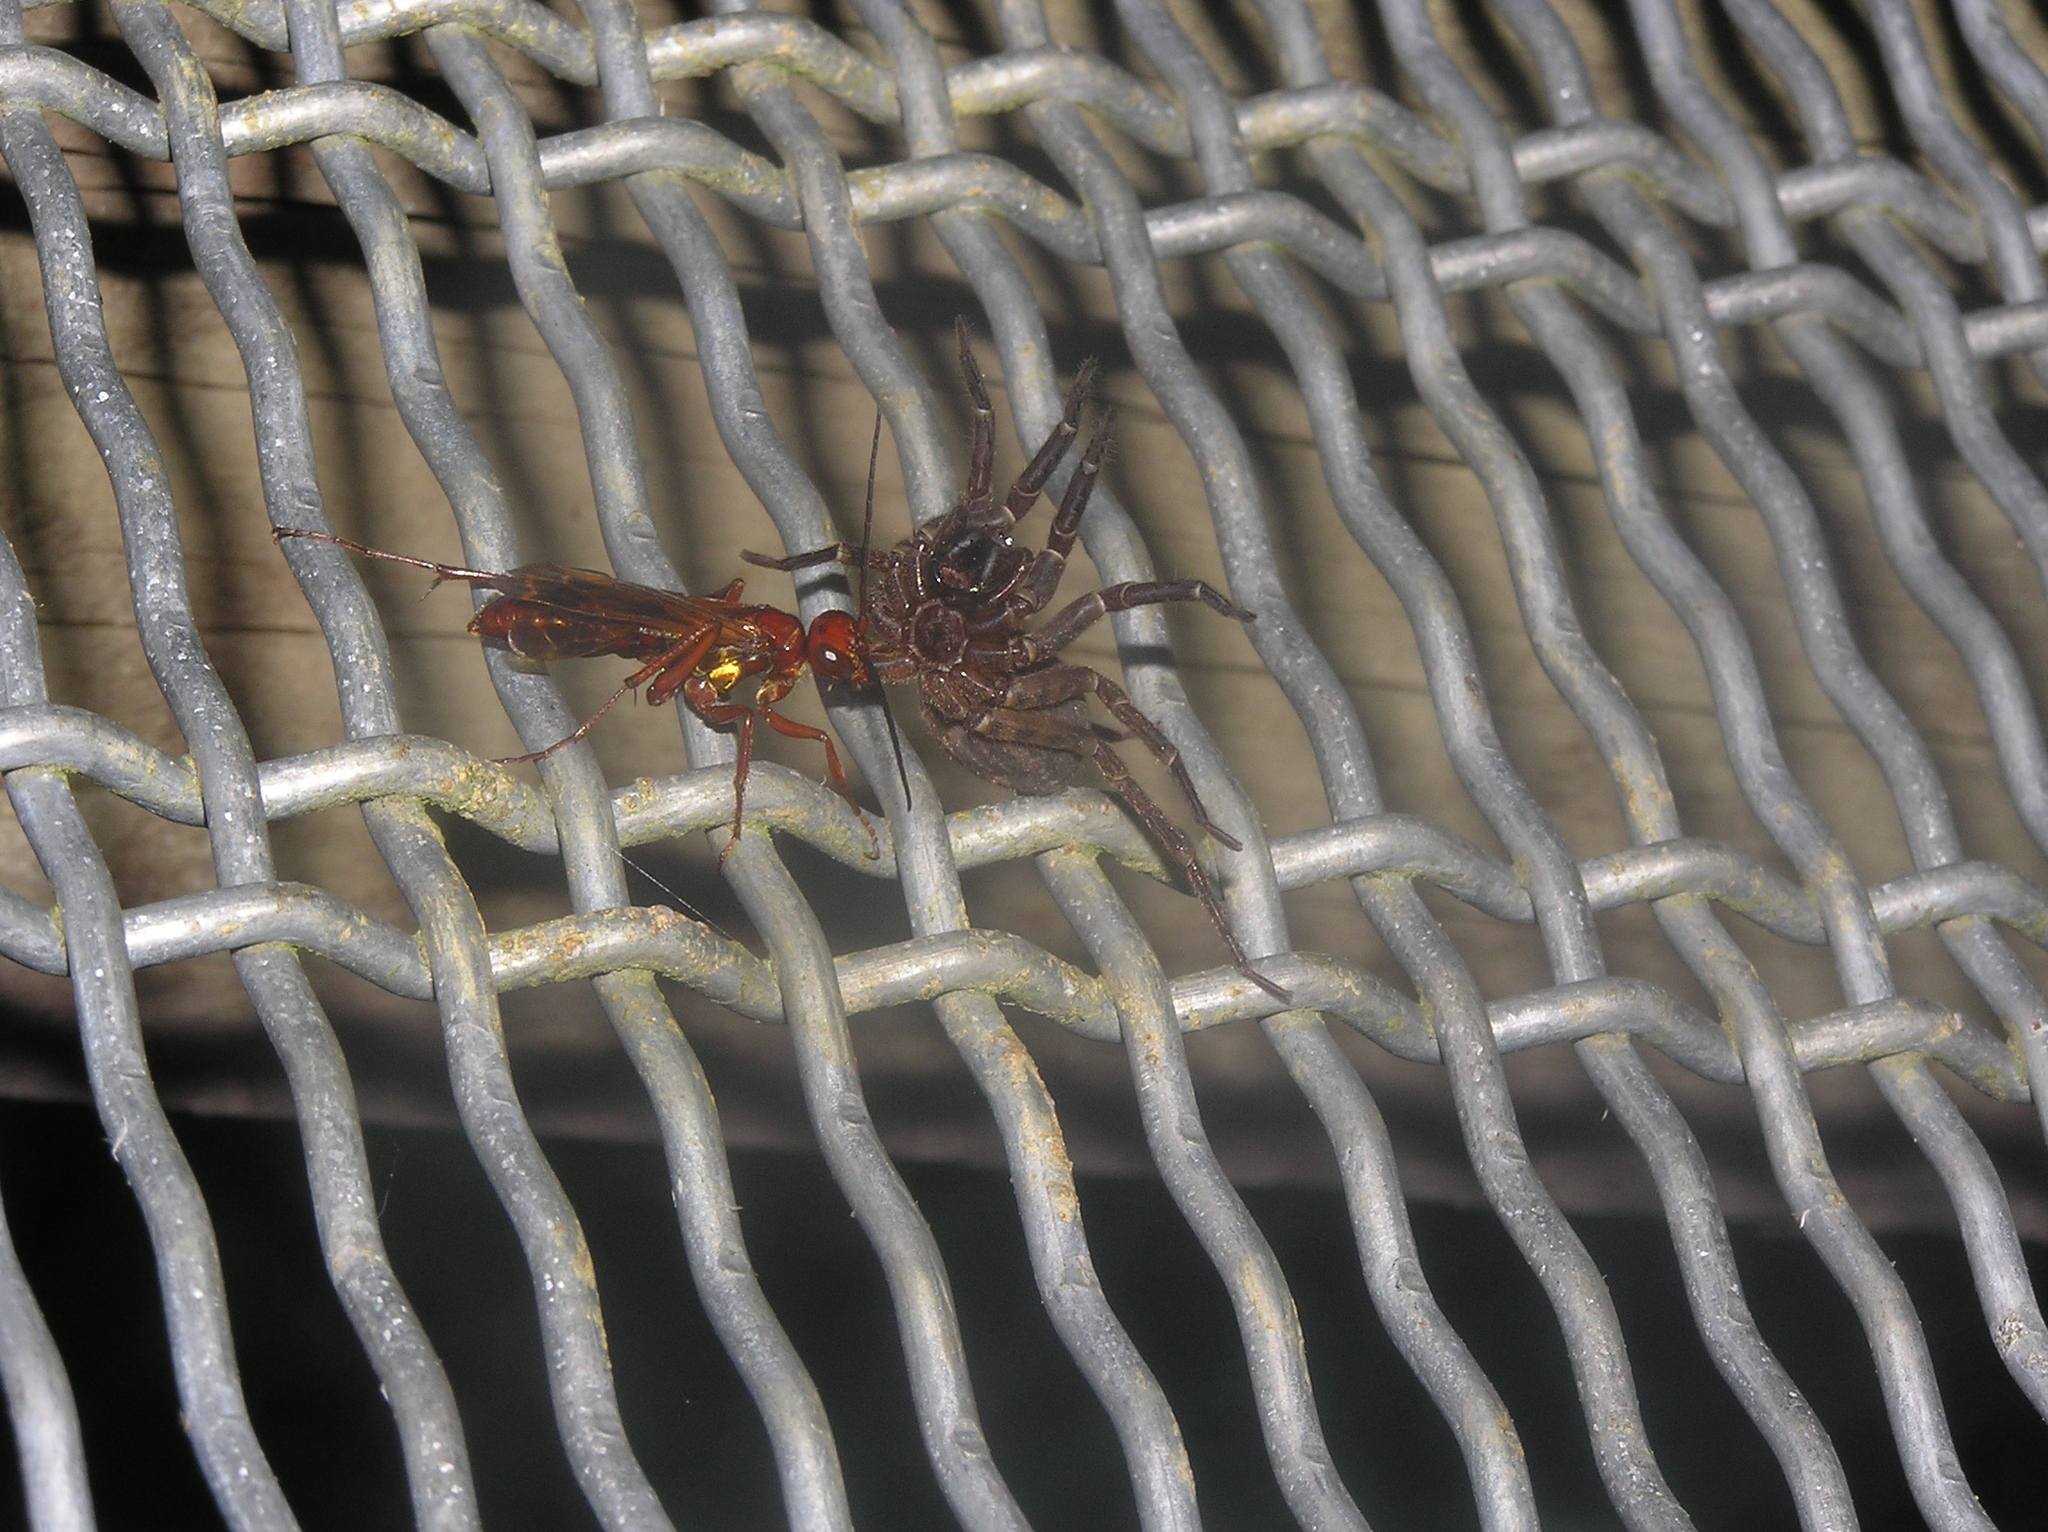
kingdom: Animalia
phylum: Arthropoda
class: Insecta
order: Hymenoptera
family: Pompilidae
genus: Sphictostethus
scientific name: Sphictostethus nitidus
